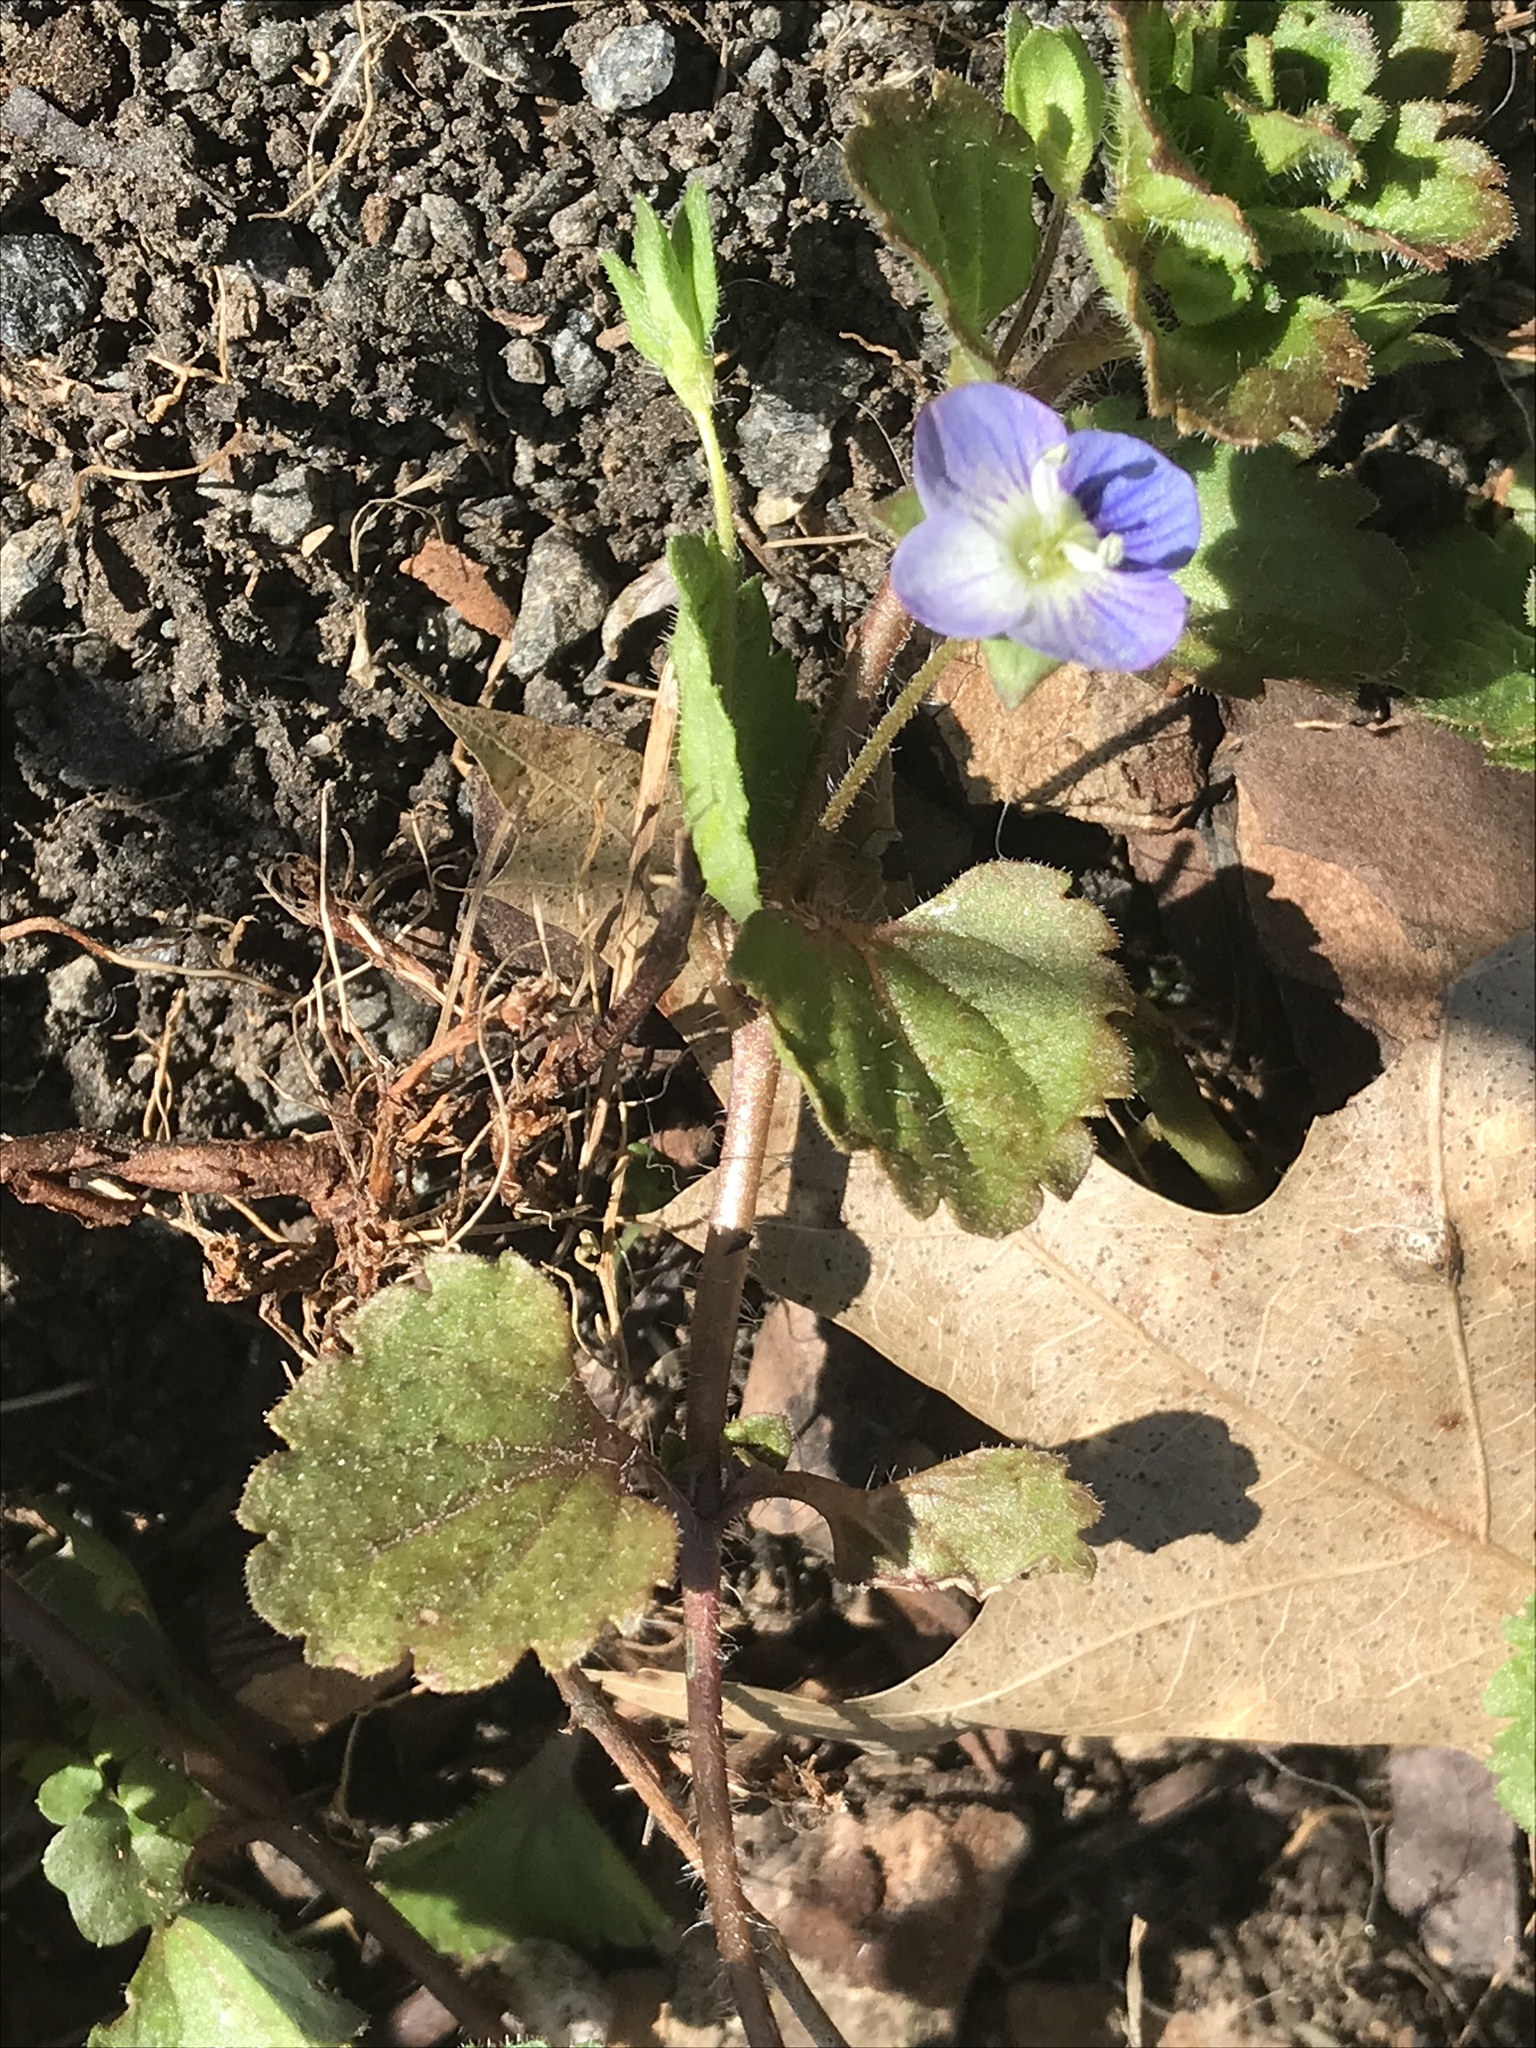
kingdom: Plantae
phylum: Tracheophyta
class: Magnoliopsida
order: Lamiales
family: Plantaginaceae
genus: Veronica
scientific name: Veronica persica
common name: Common field-speedwell
